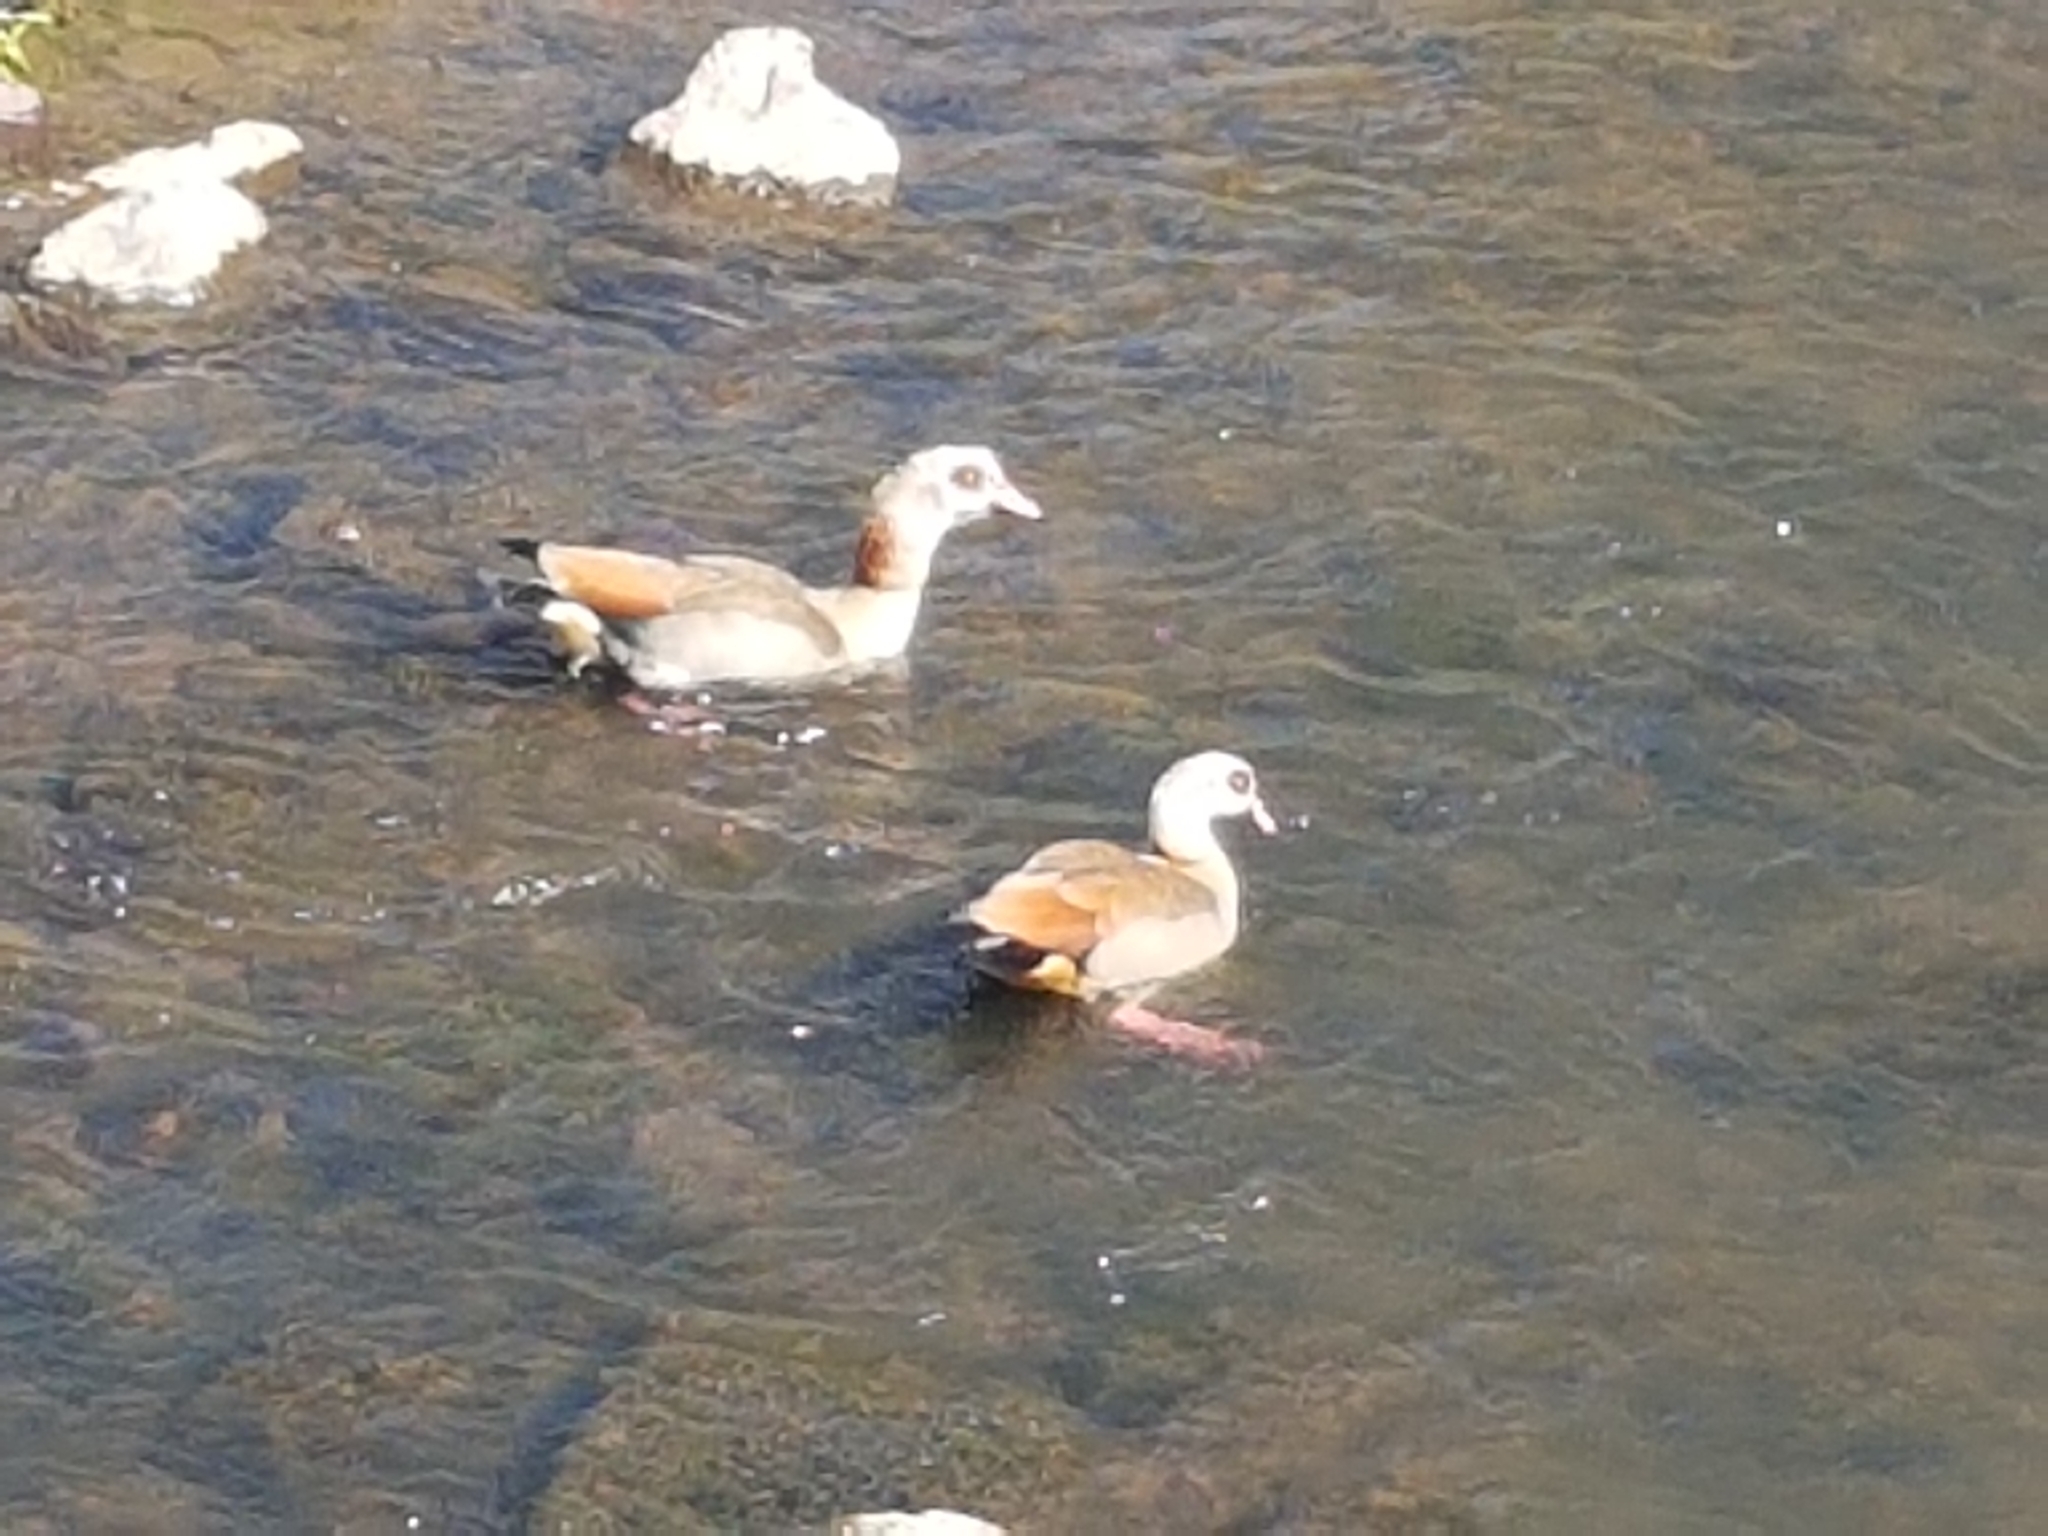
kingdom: Animalia
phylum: Chordata
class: Aves
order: Anseriformes
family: Anatidae
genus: Alopochen
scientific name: Alopochen aegyptiaca
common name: Egyptian goose
